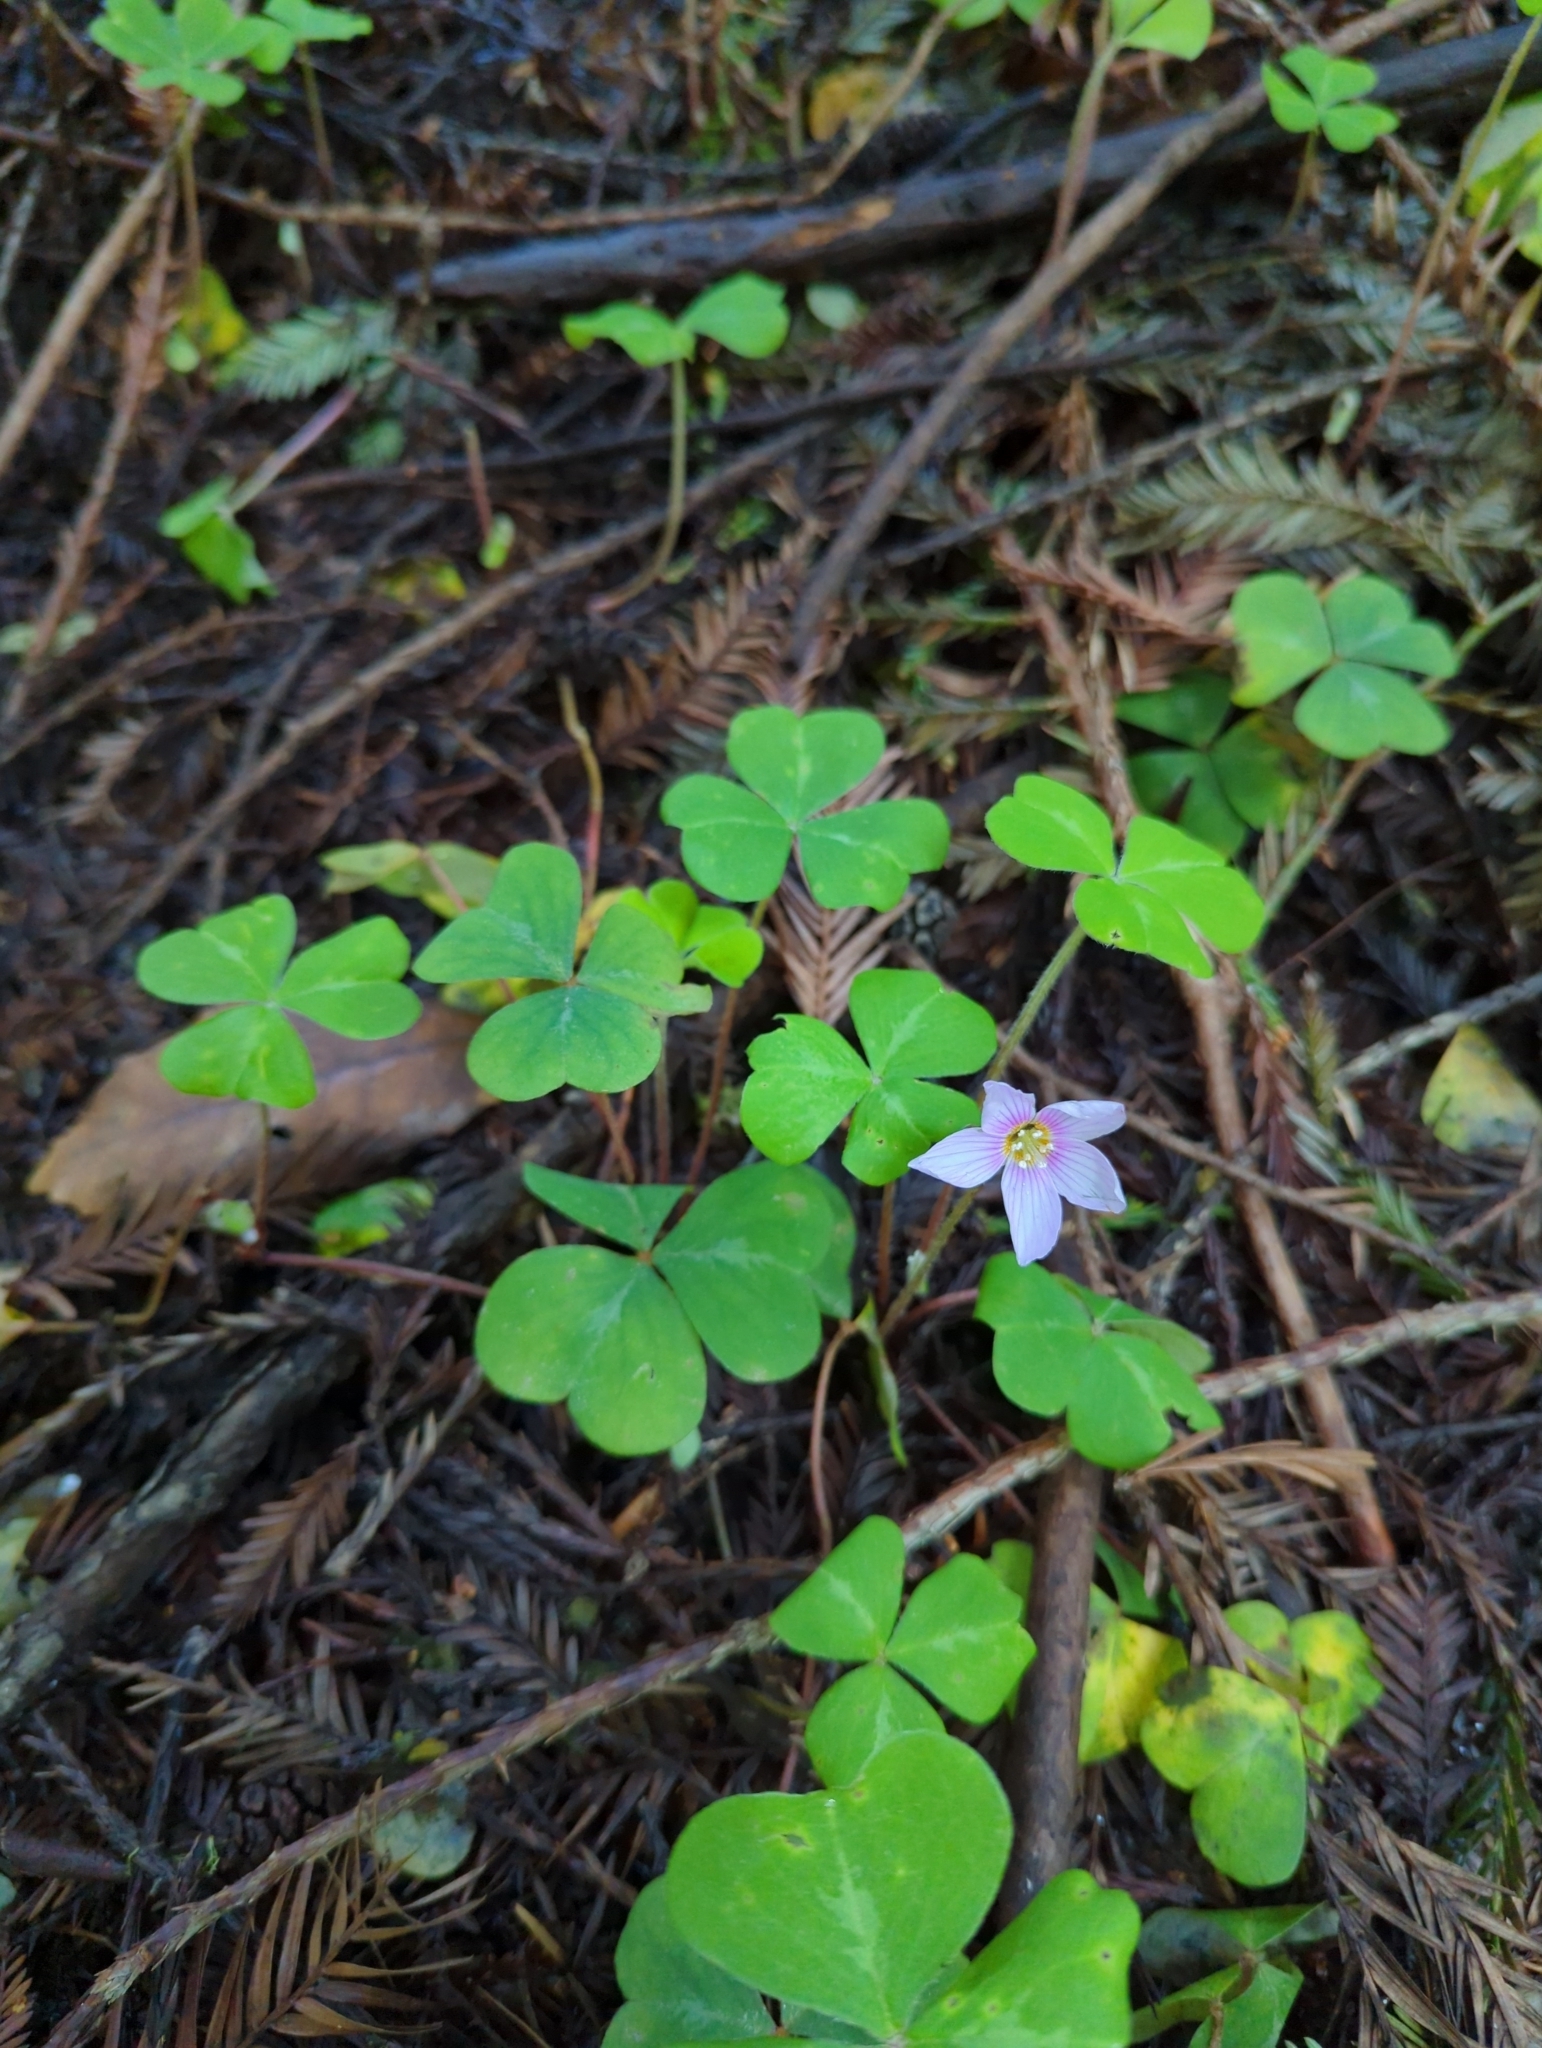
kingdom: Plantae
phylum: Tracheophyta
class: Magnoliopsida
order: Oxalidales
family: Oxalidaceae
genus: Oxalis
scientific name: Oxalis oregana
